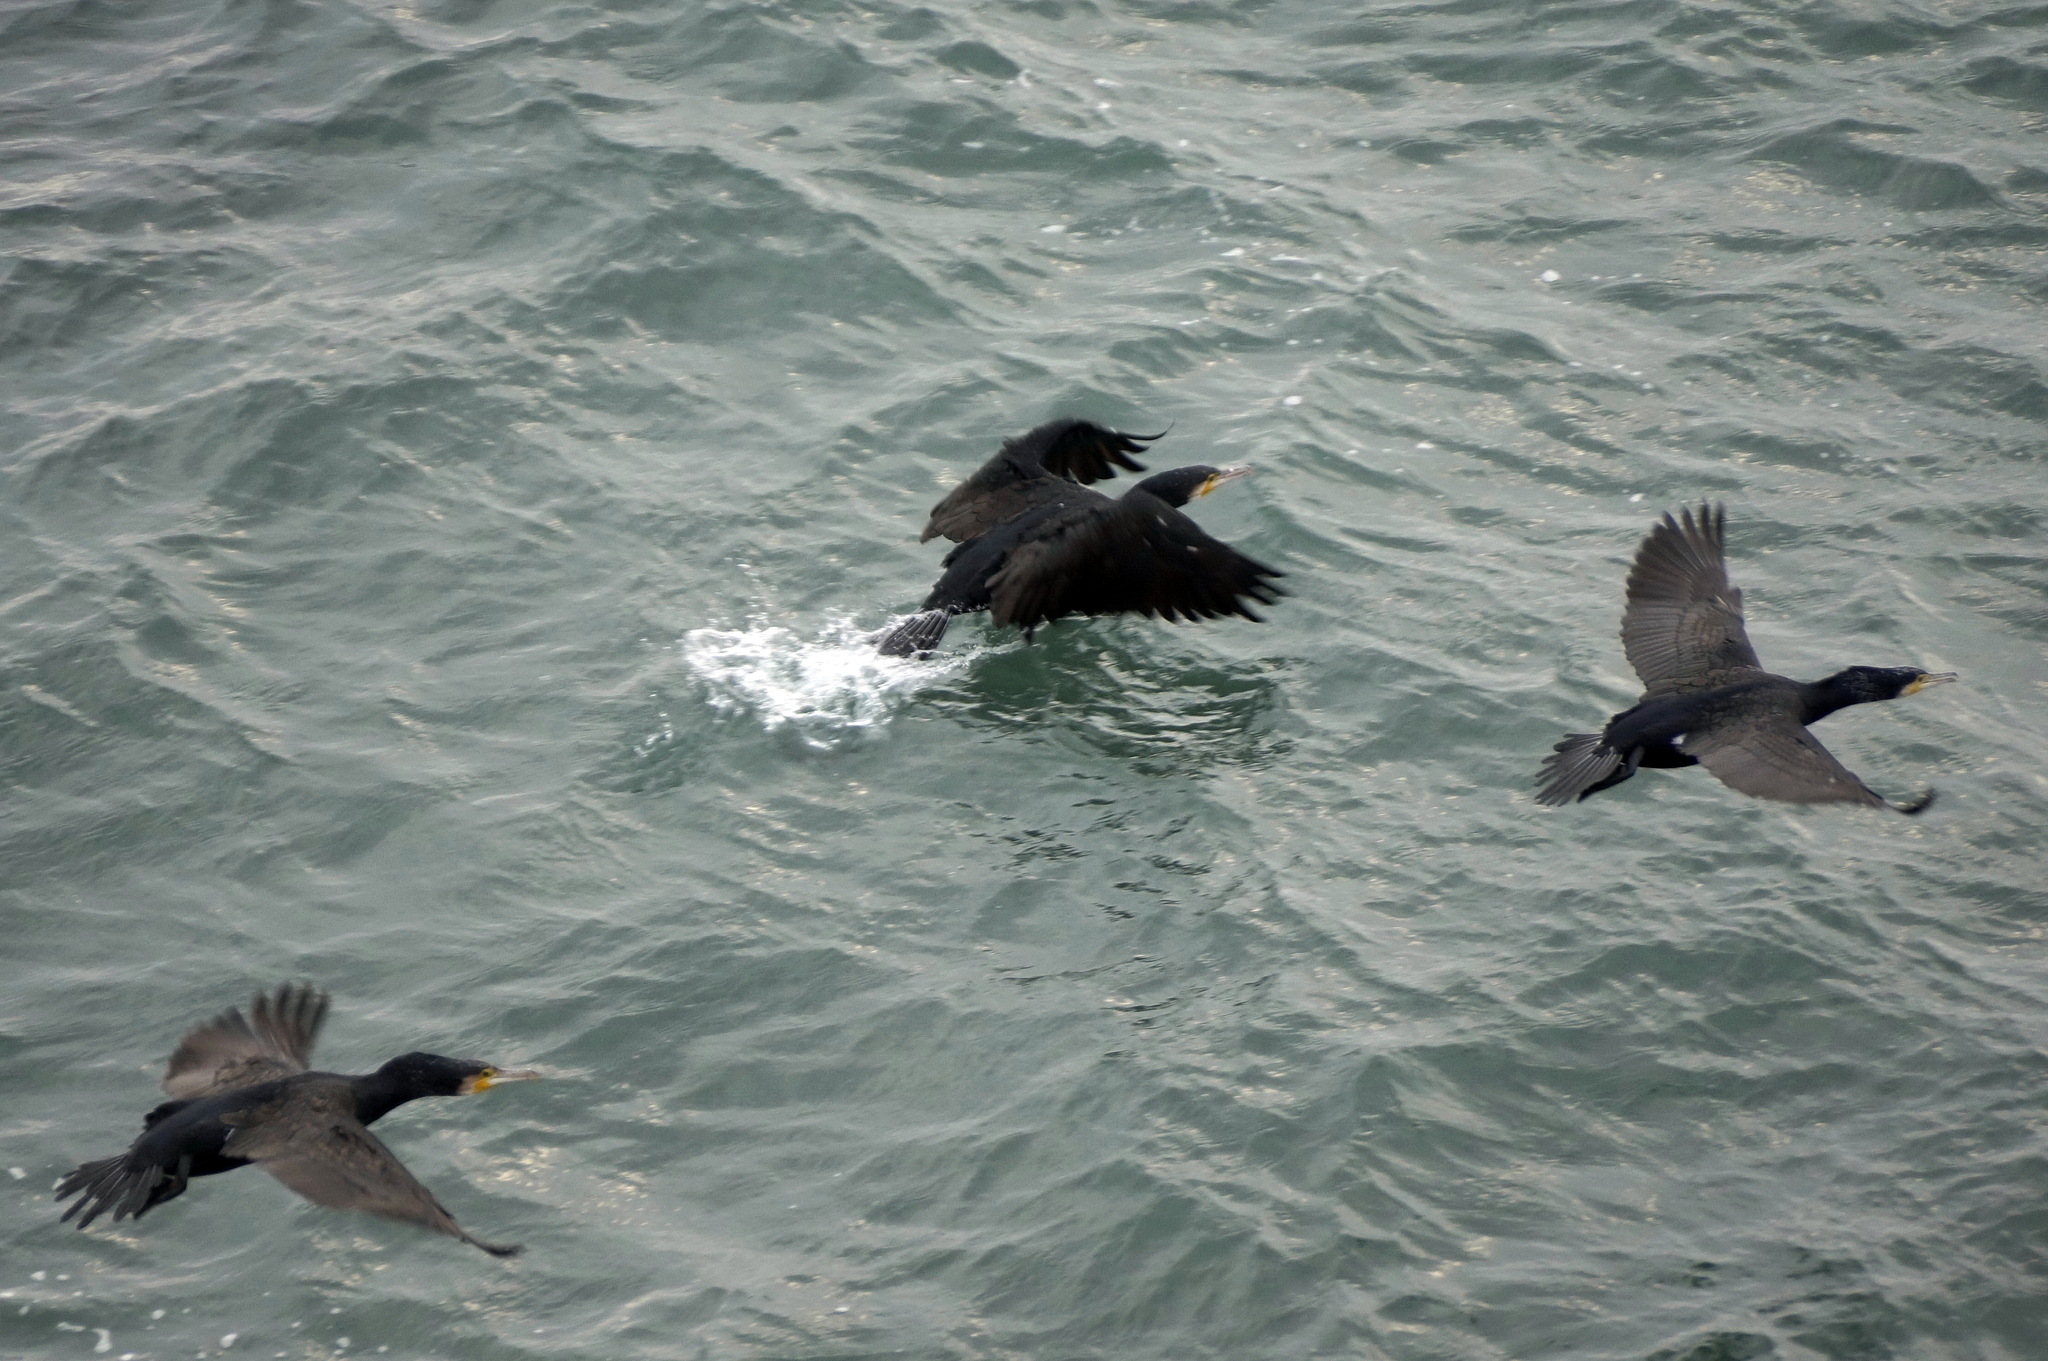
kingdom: Animalia
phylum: Chordata
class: Aves
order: Suliformes
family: Phalacrocoracidae
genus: Phalacrocorax
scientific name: Phalacrocorax carbo
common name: Great cormorant
